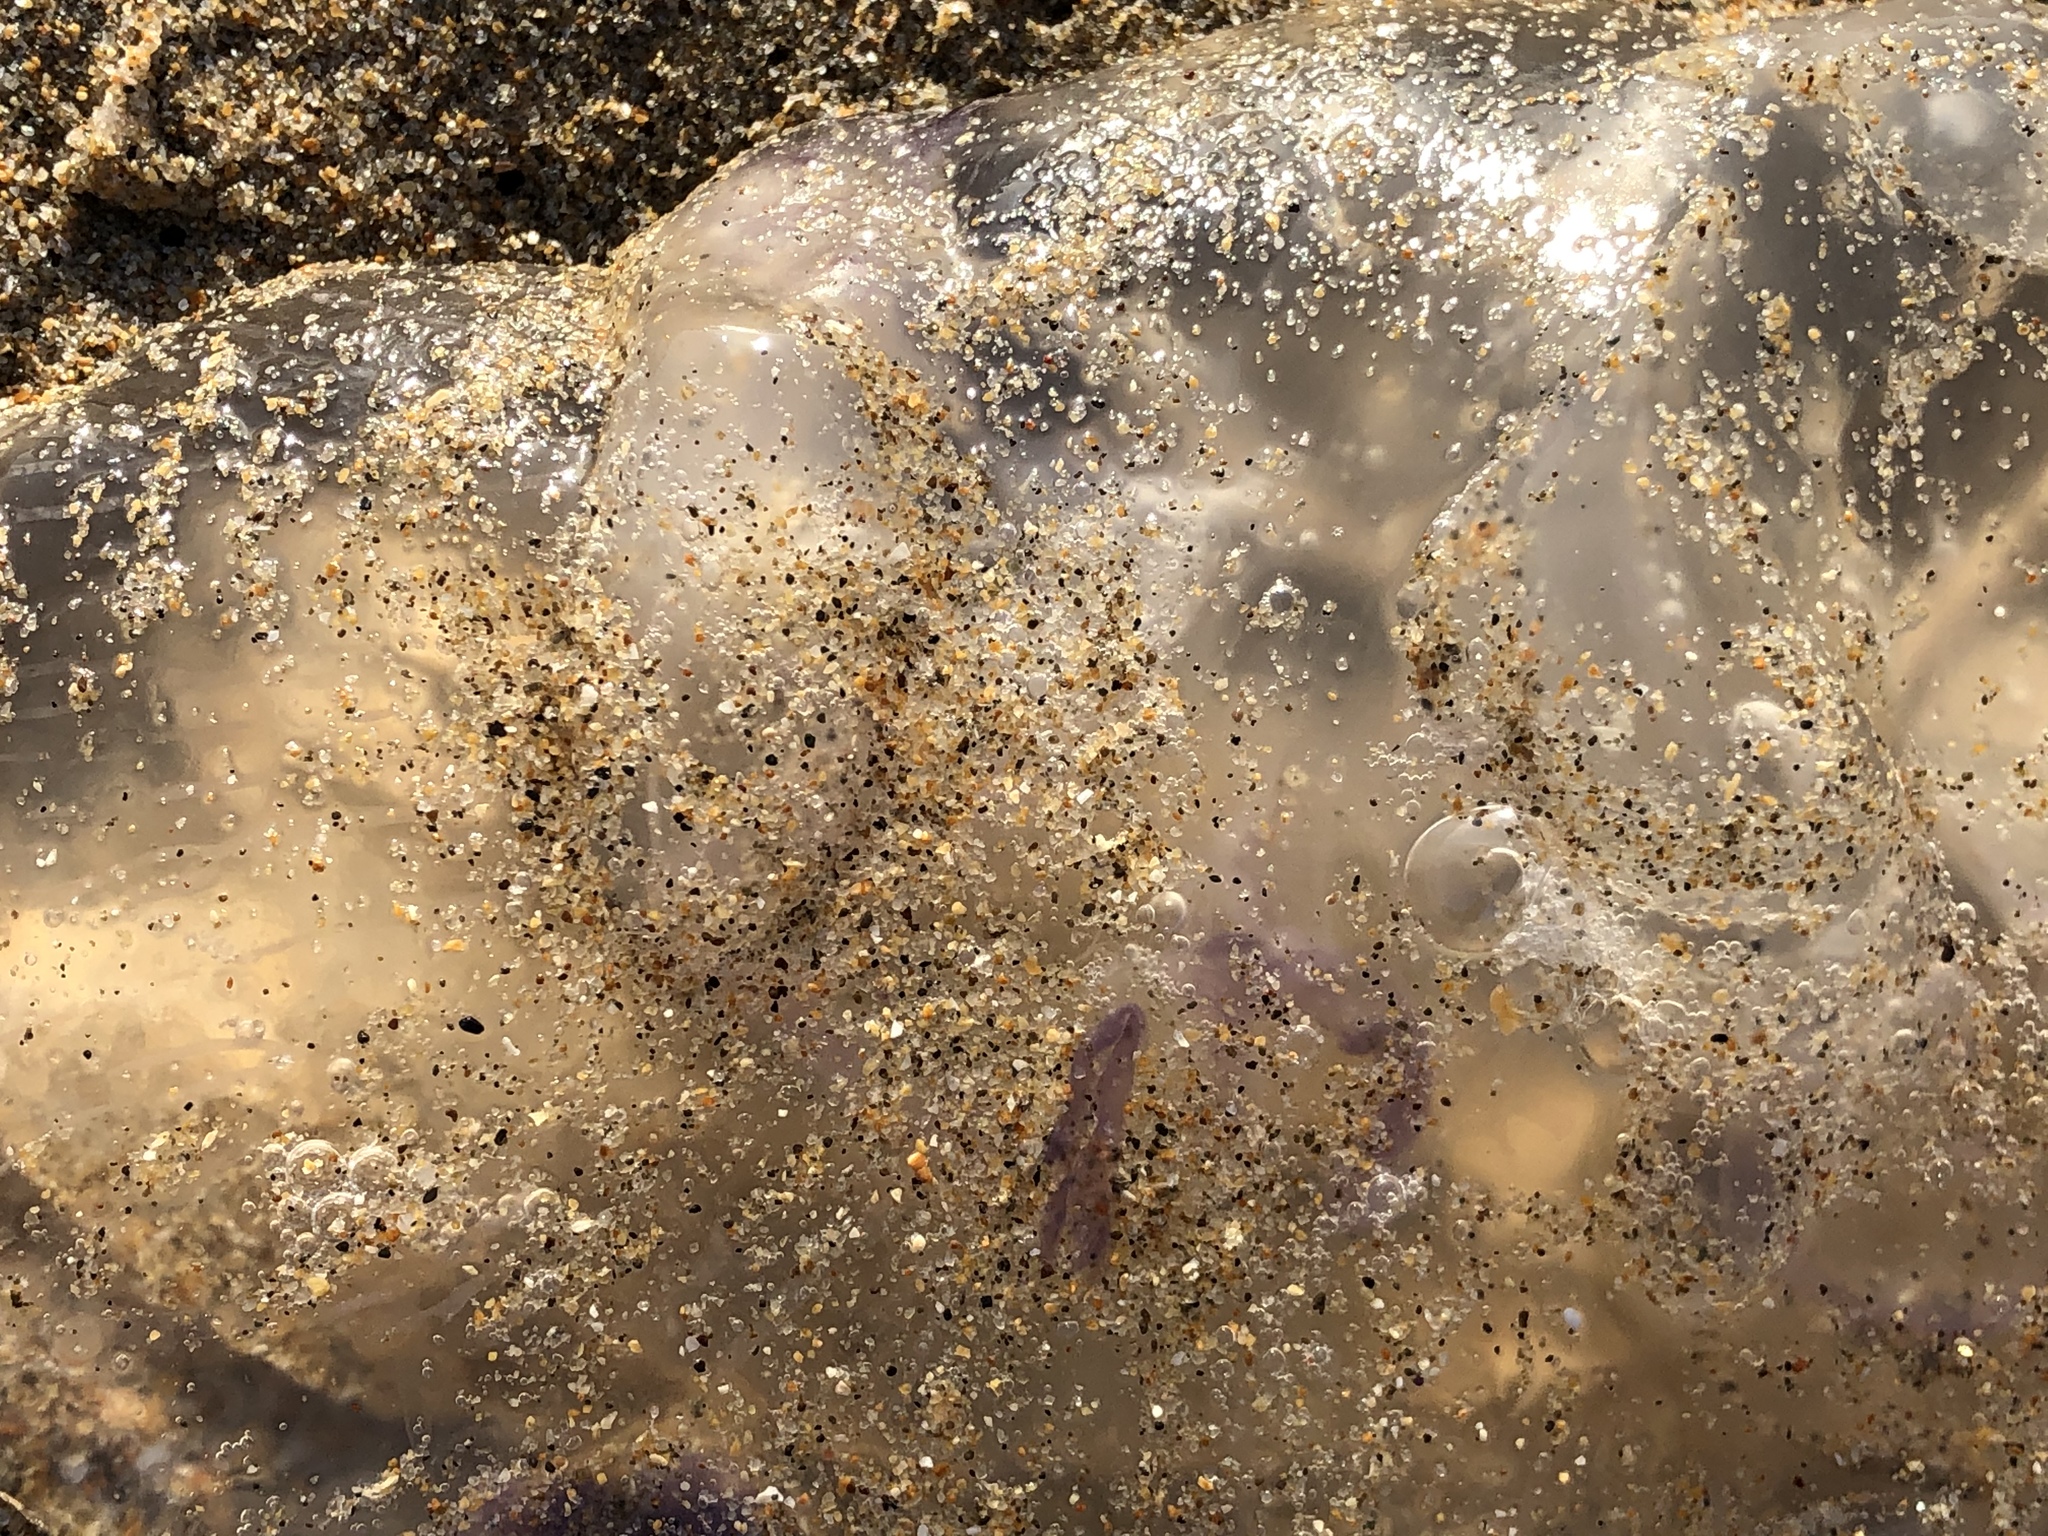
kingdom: Animalia
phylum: Cnidaria
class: Scyphozoa
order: Semaeostomeae
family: Ulmaridae
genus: Aurelia
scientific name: Aurelia labiata
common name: Pacific moon jelly
